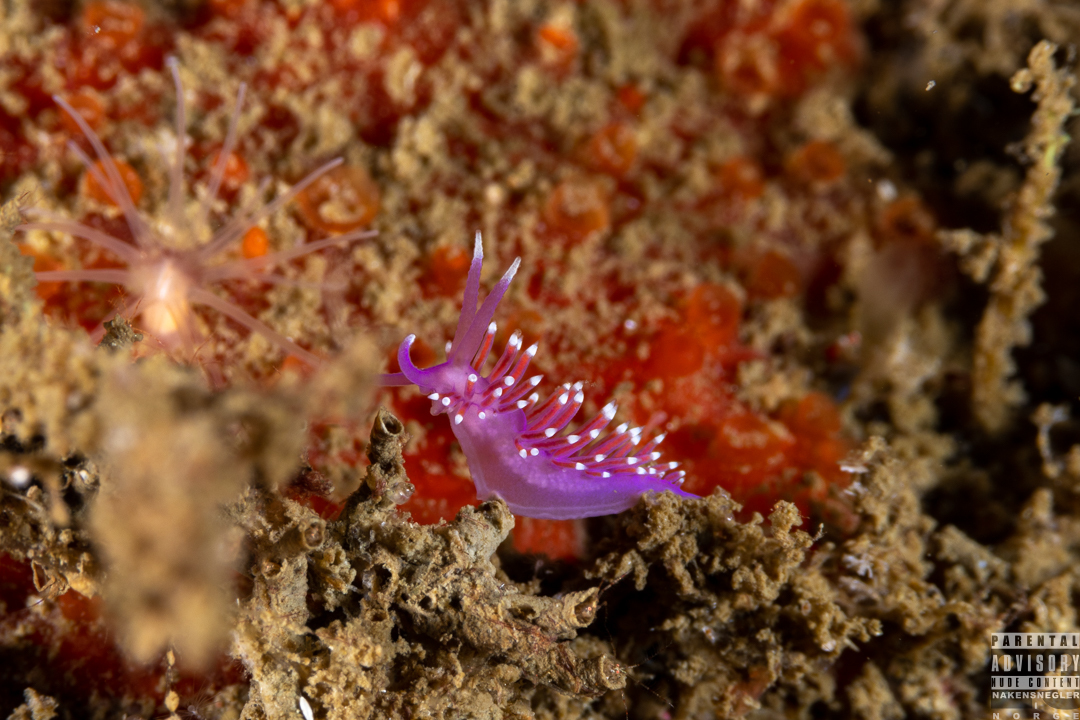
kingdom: Animalia
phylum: Mollusca
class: Gastropoda
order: Nudibranchia
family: Flabellinidae
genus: Edmundsella
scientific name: Edmundsella pedata
